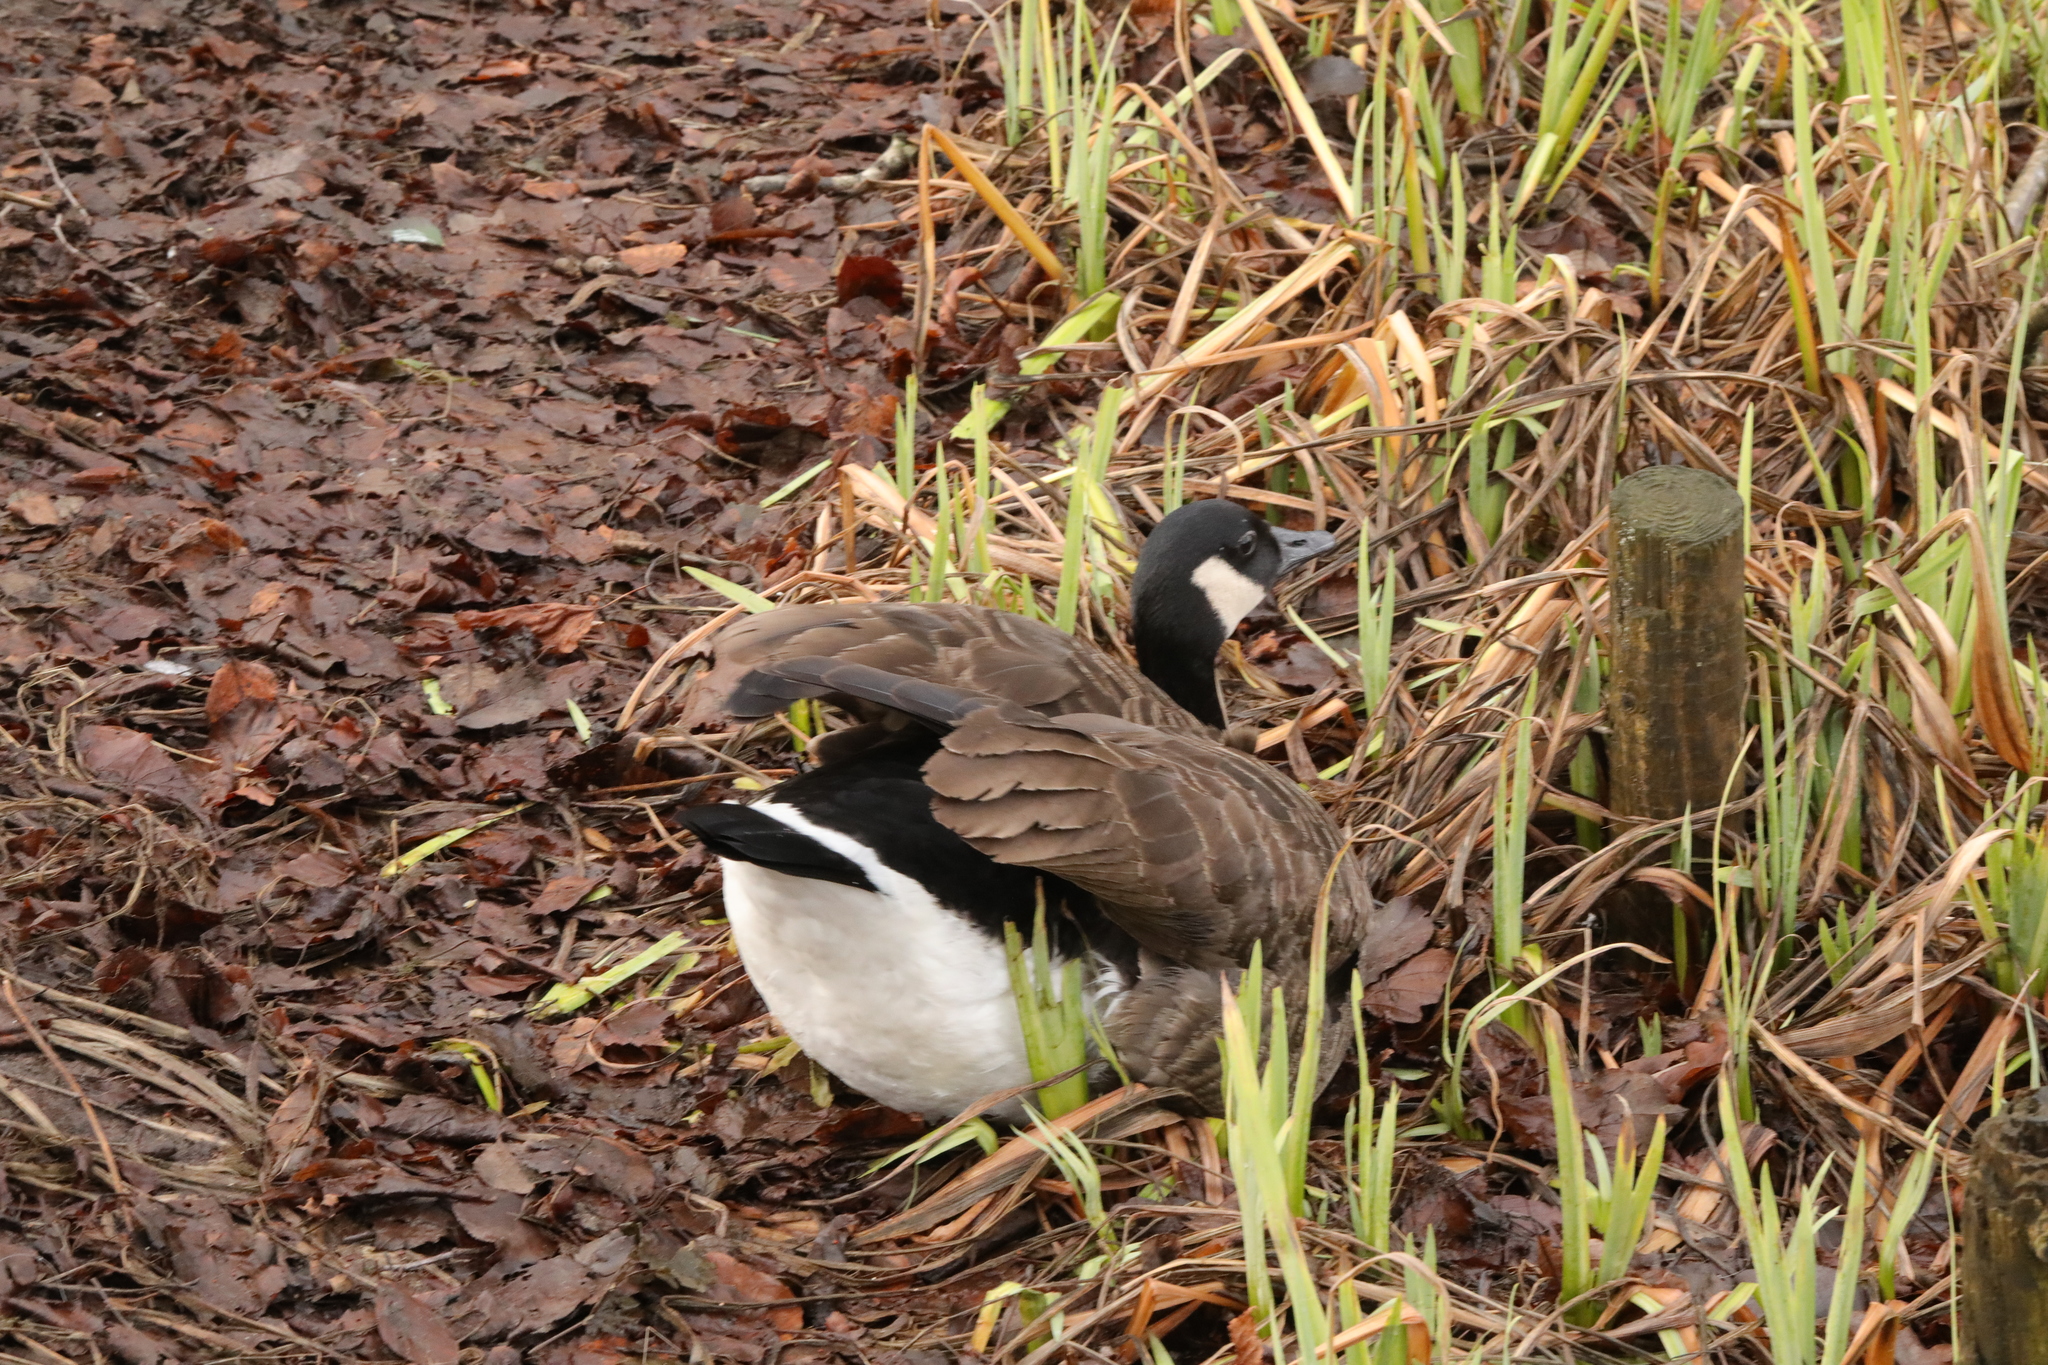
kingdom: Animalia
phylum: Chordata
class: Aves
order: Anseriformes
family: Anatidae
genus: Branta
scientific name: Branta canadensis
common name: Canada goose
